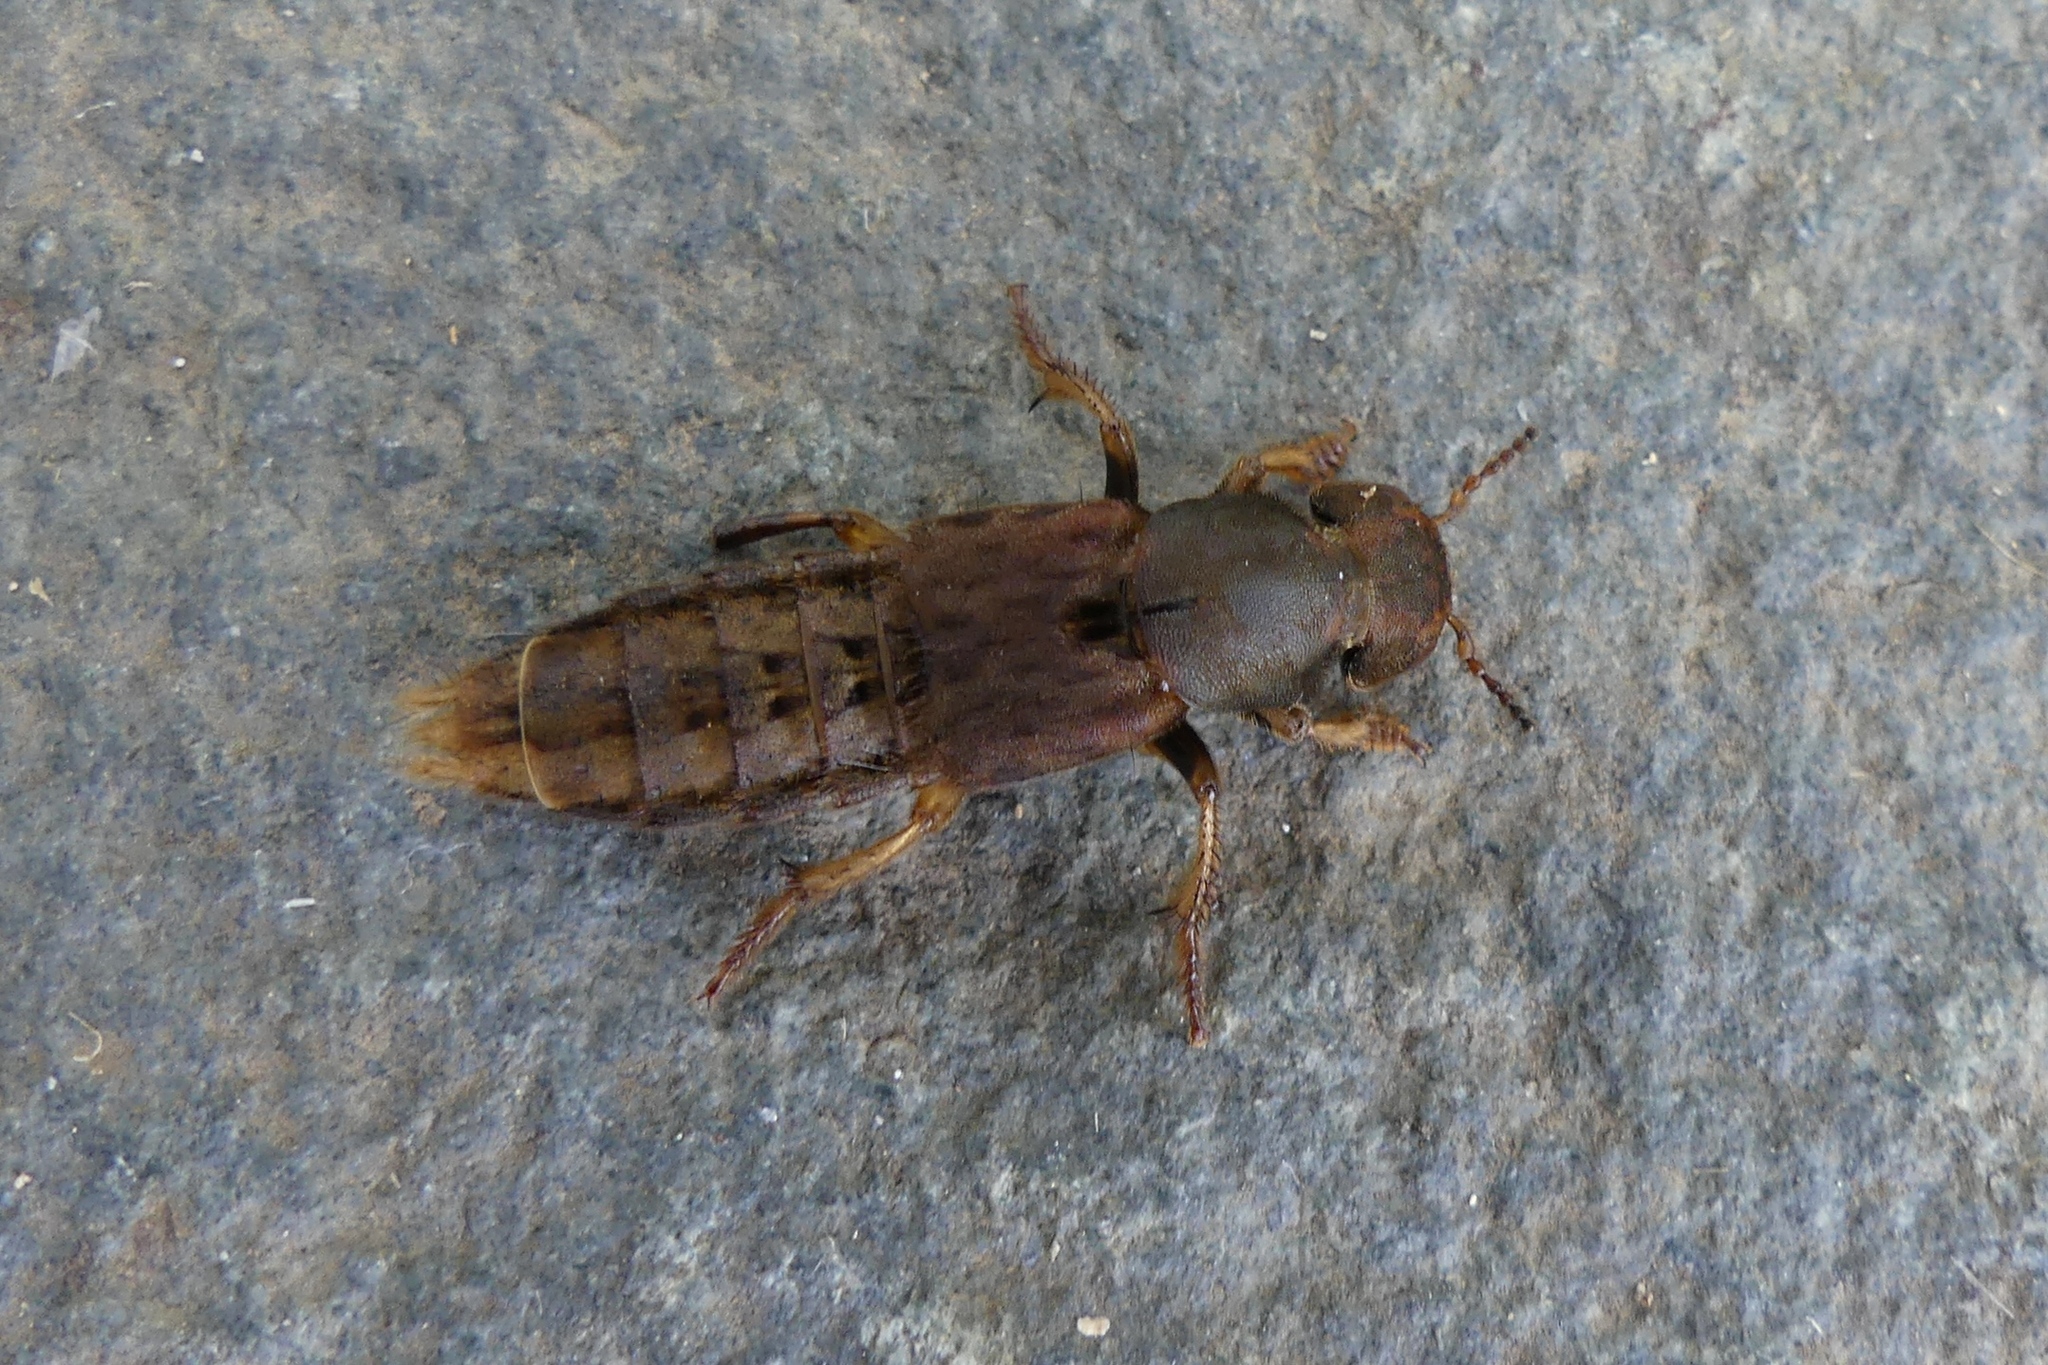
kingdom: Animalia
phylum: Arthropoda
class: Insecta
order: Coleoptera
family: Staphylinidae
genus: Platydracus
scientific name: Platydracus maculosus
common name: Brown rove beetle
